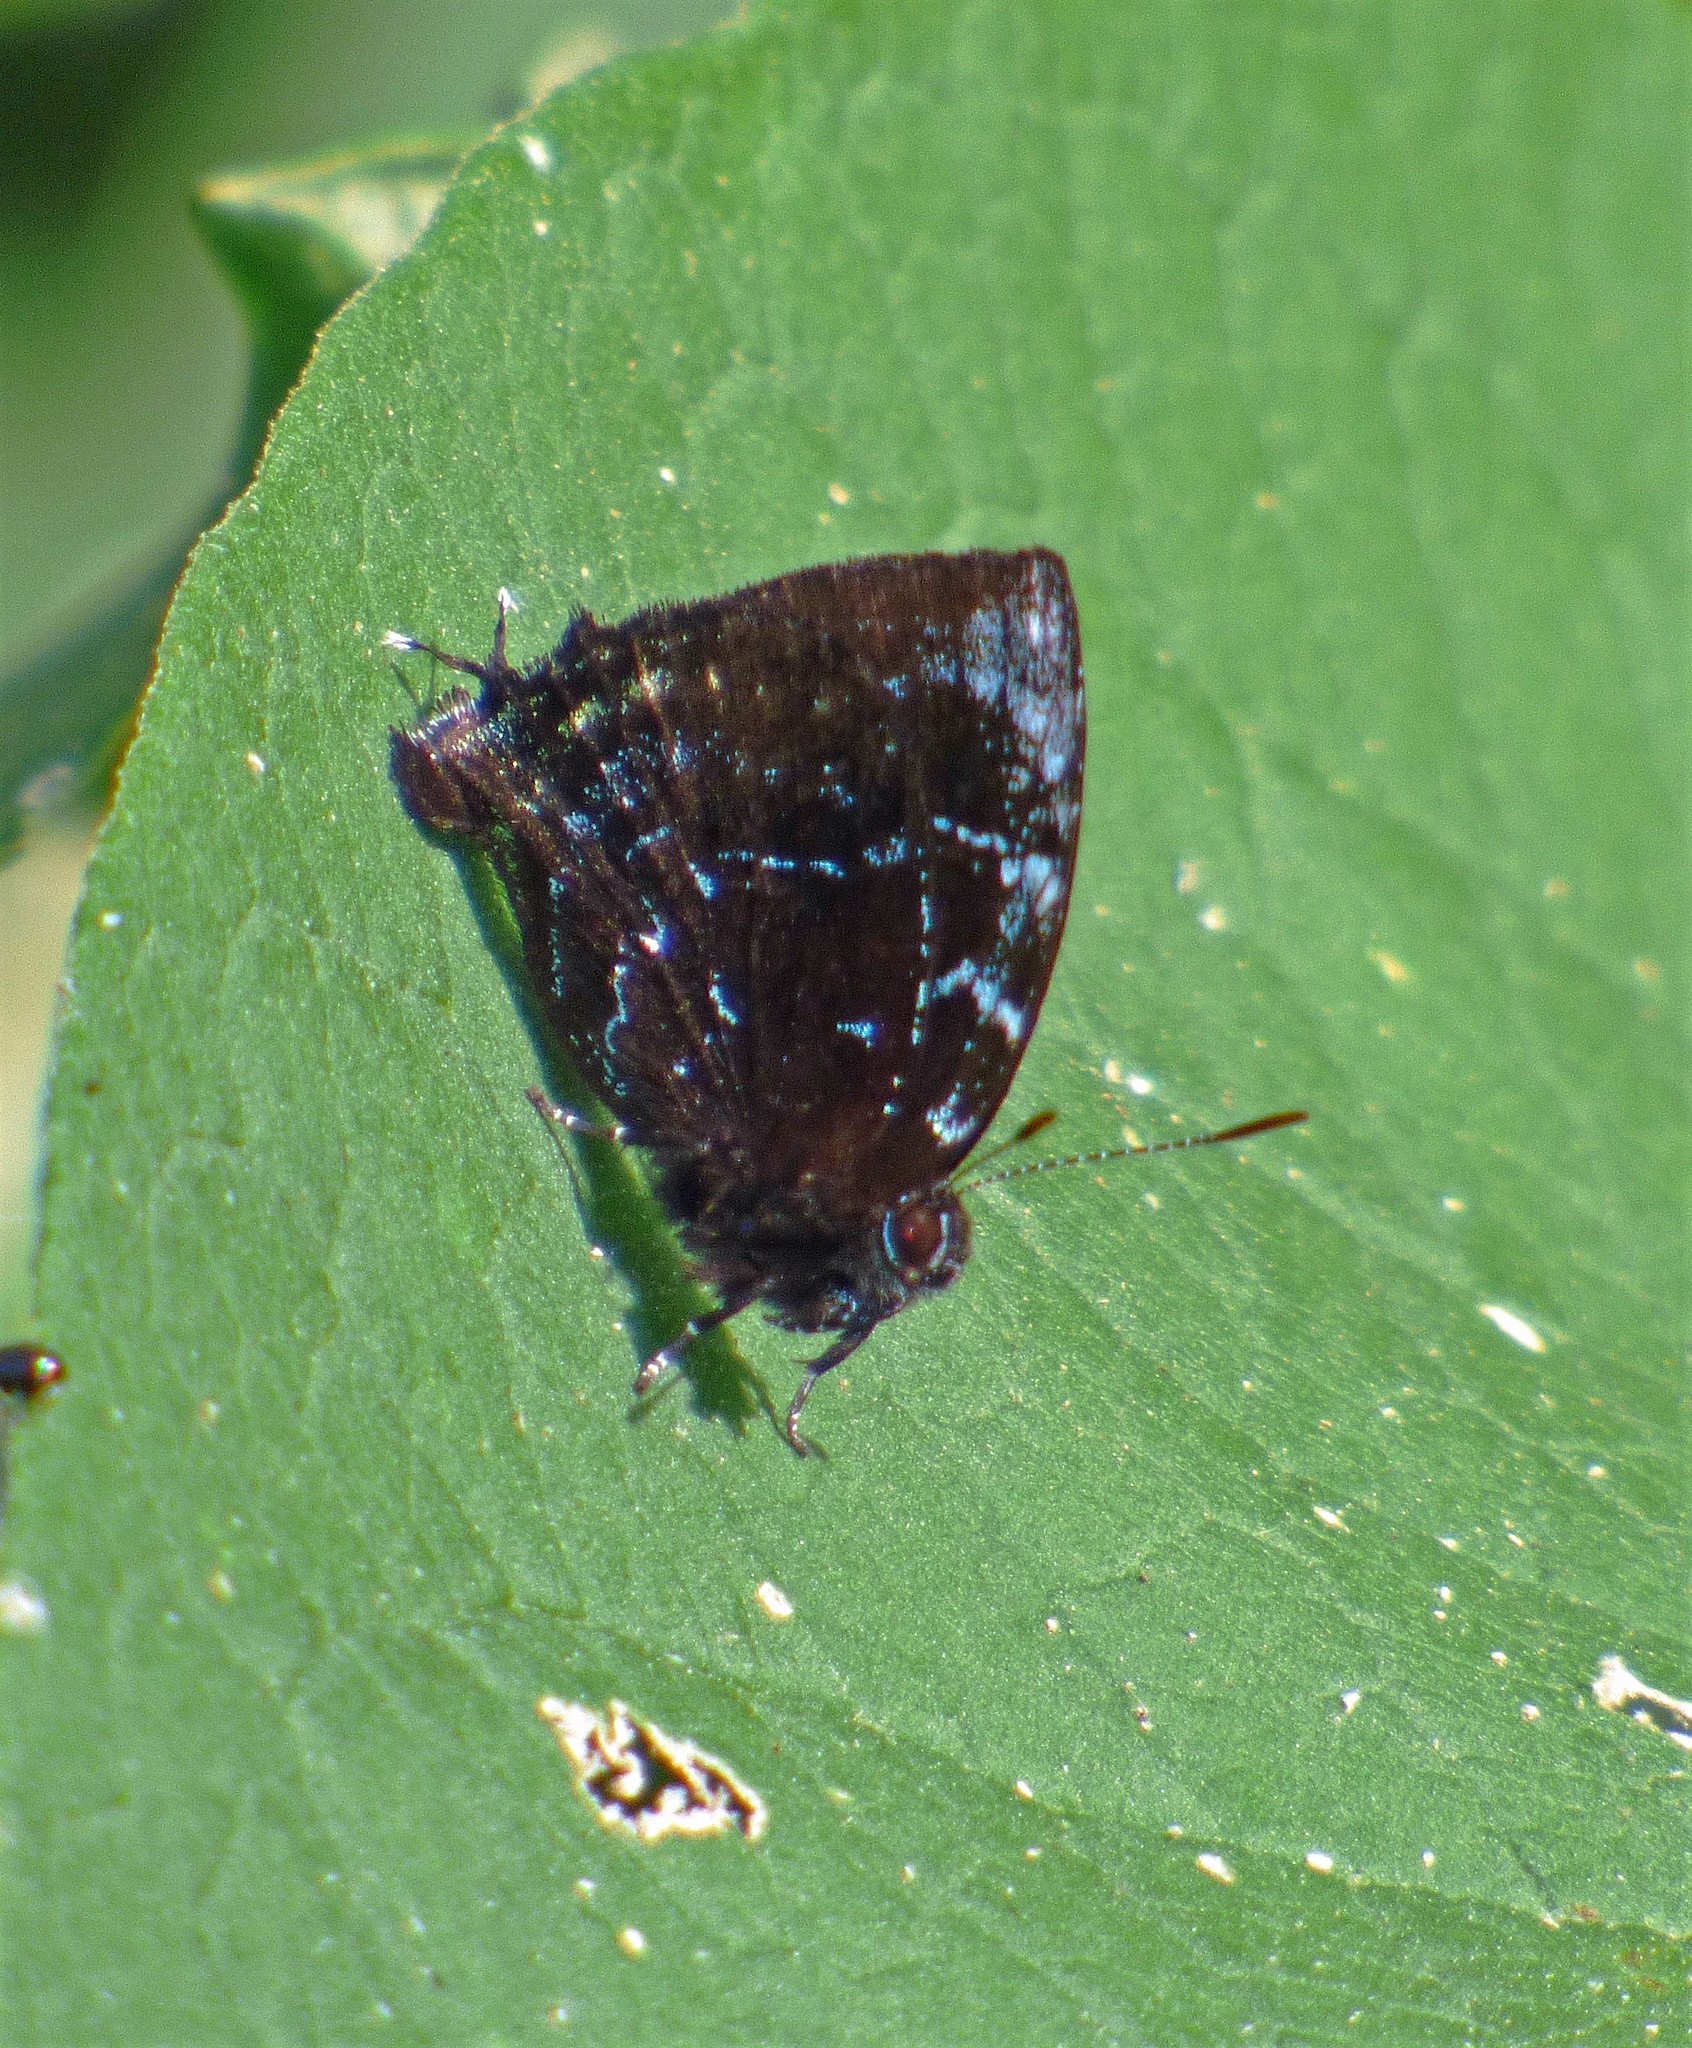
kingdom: Animalia
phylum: Arthropoda
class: Insecta
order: Lepidoptera
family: Lycaenidae
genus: Thecla
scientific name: Thecla thales
